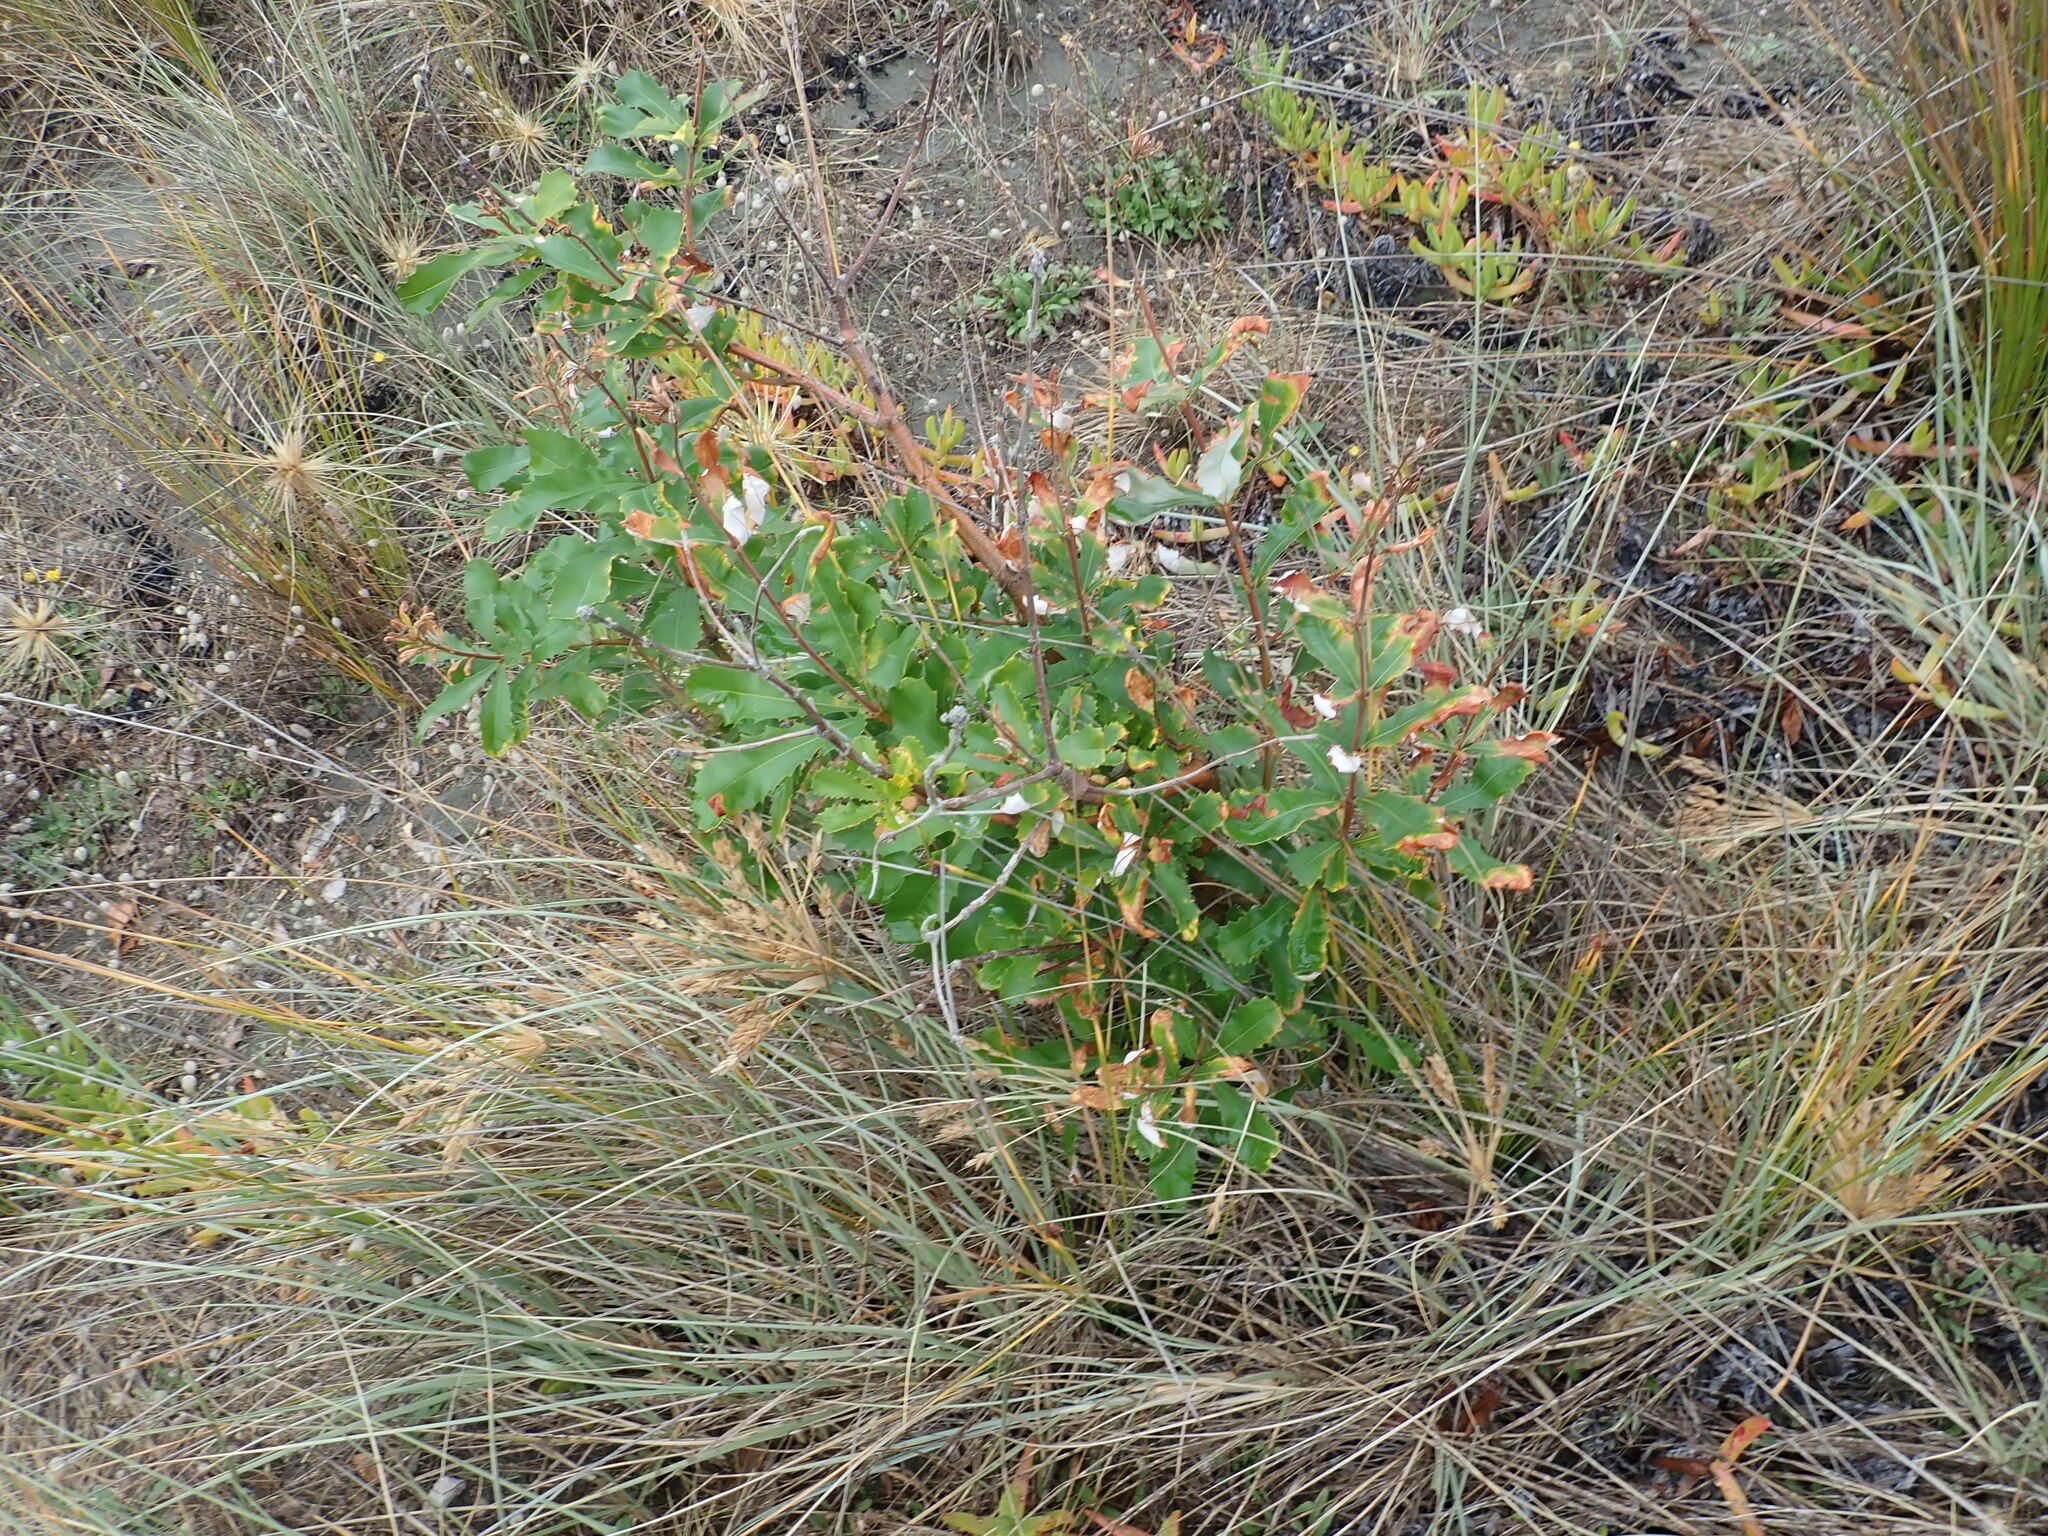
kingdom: Plantae
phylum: Tracheophyta
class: Magnoliopsida
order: Proteales
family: Proteaceae
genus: Banksia
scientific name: Banksia integrifolia
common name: White-honeysuckle
